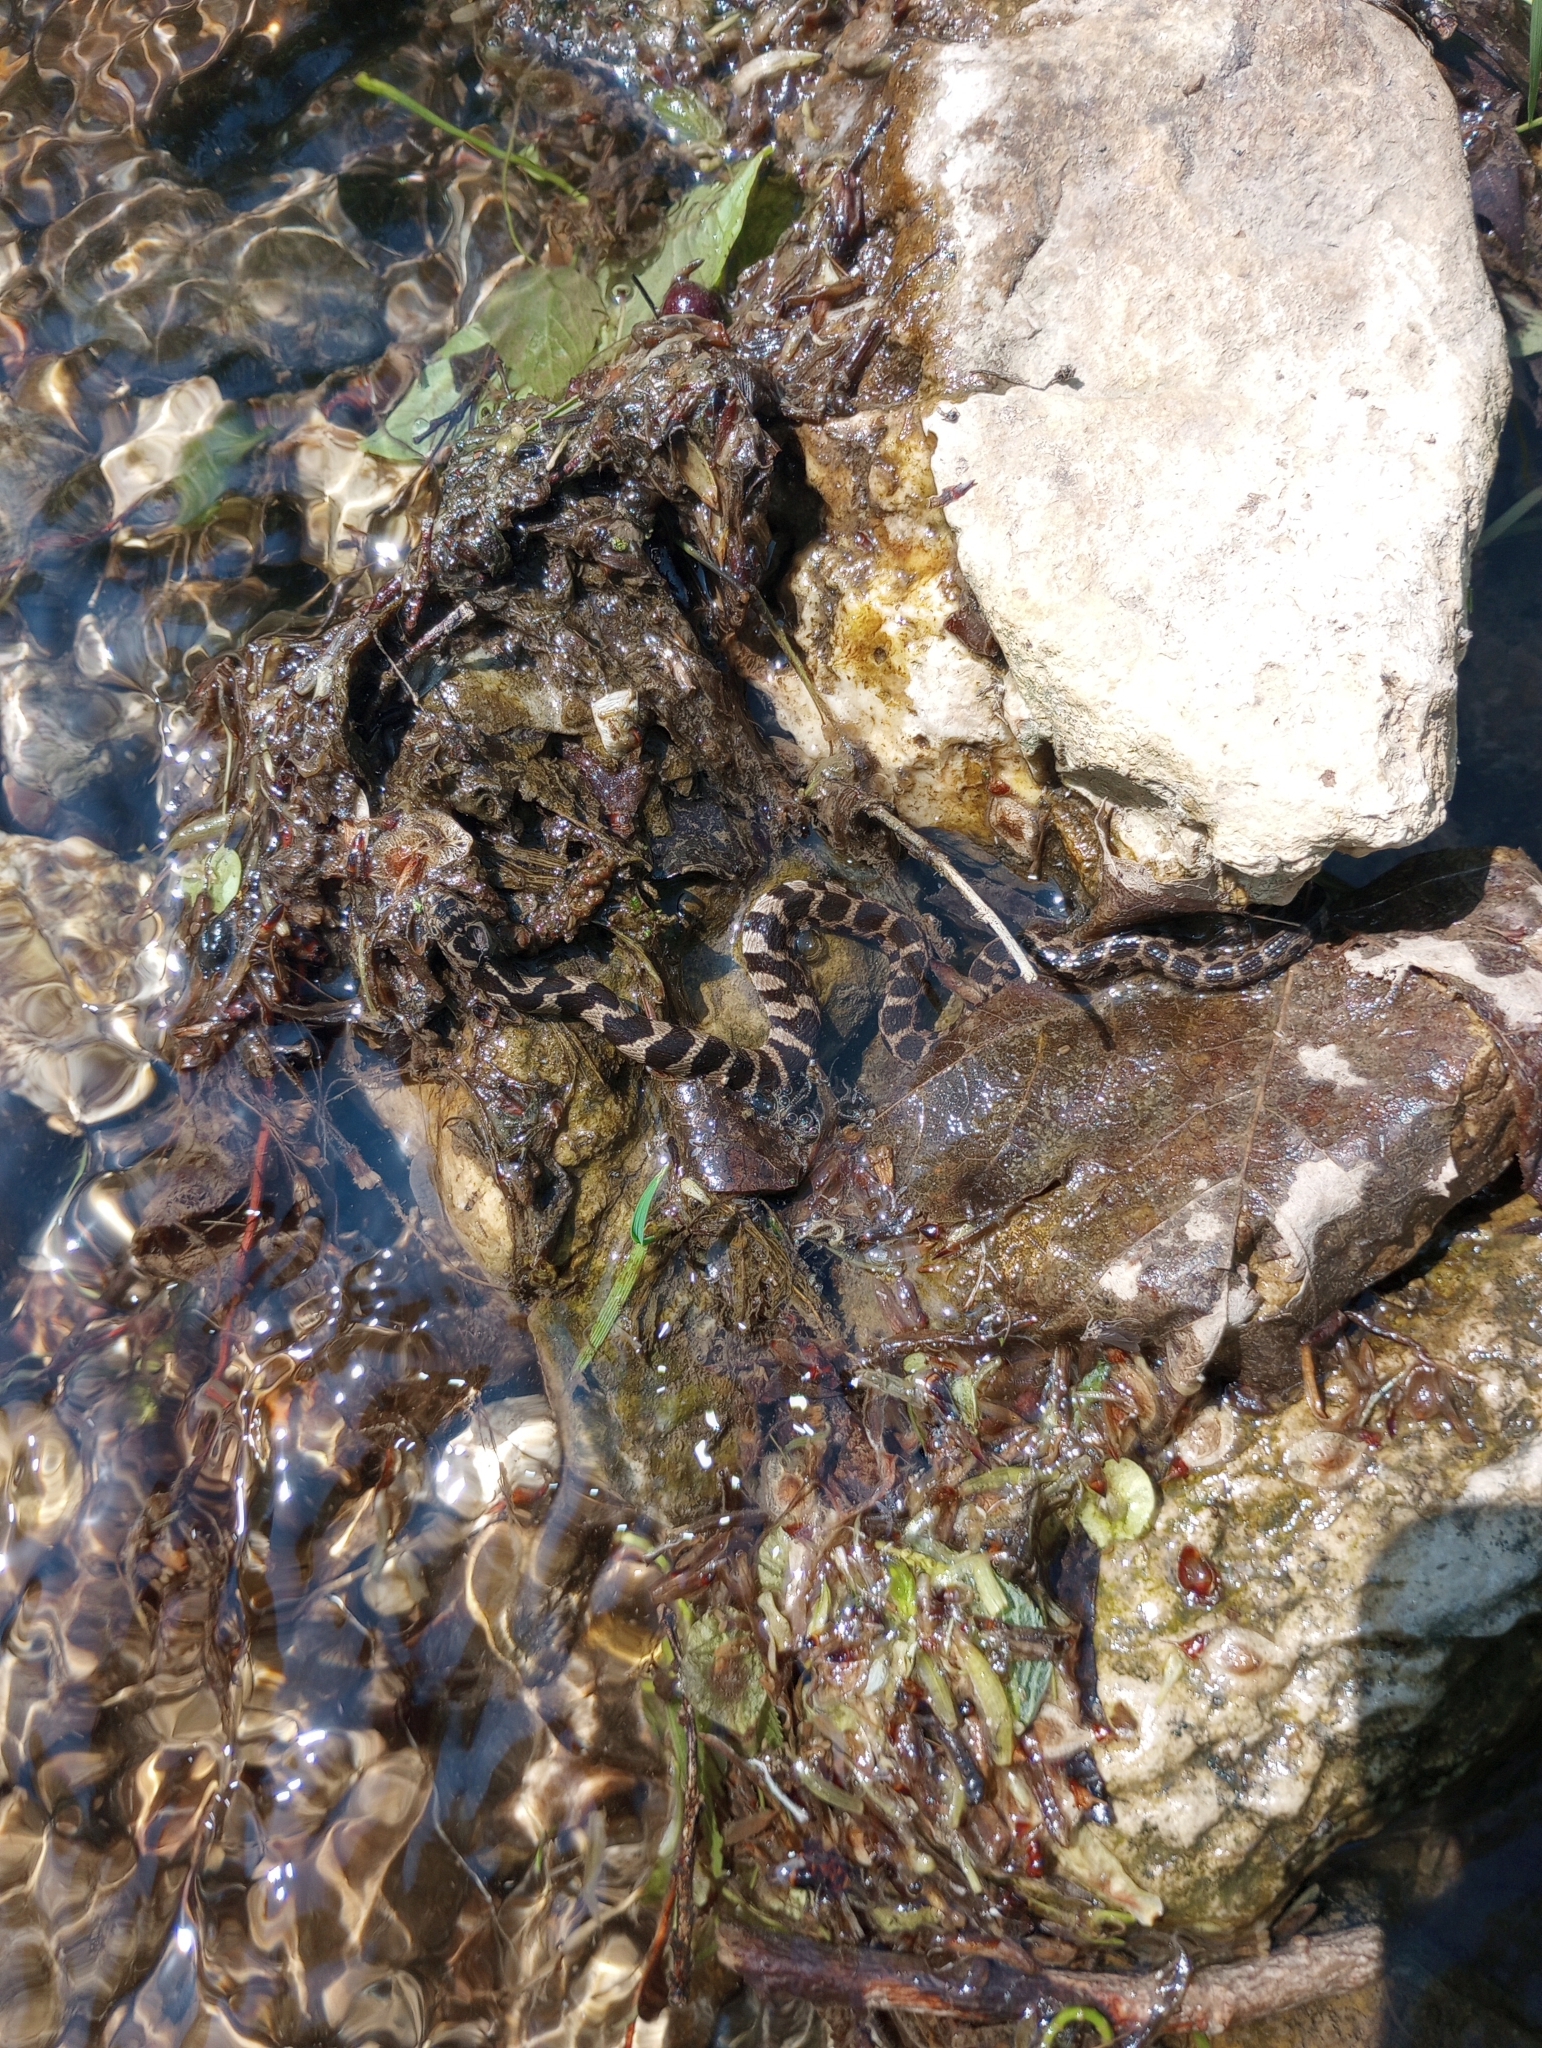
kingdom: Animalia
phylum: Chordata
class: Squamata
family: Colubridae
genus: Nerodia
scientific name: Nerodia sipedon
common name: Northern water snake
